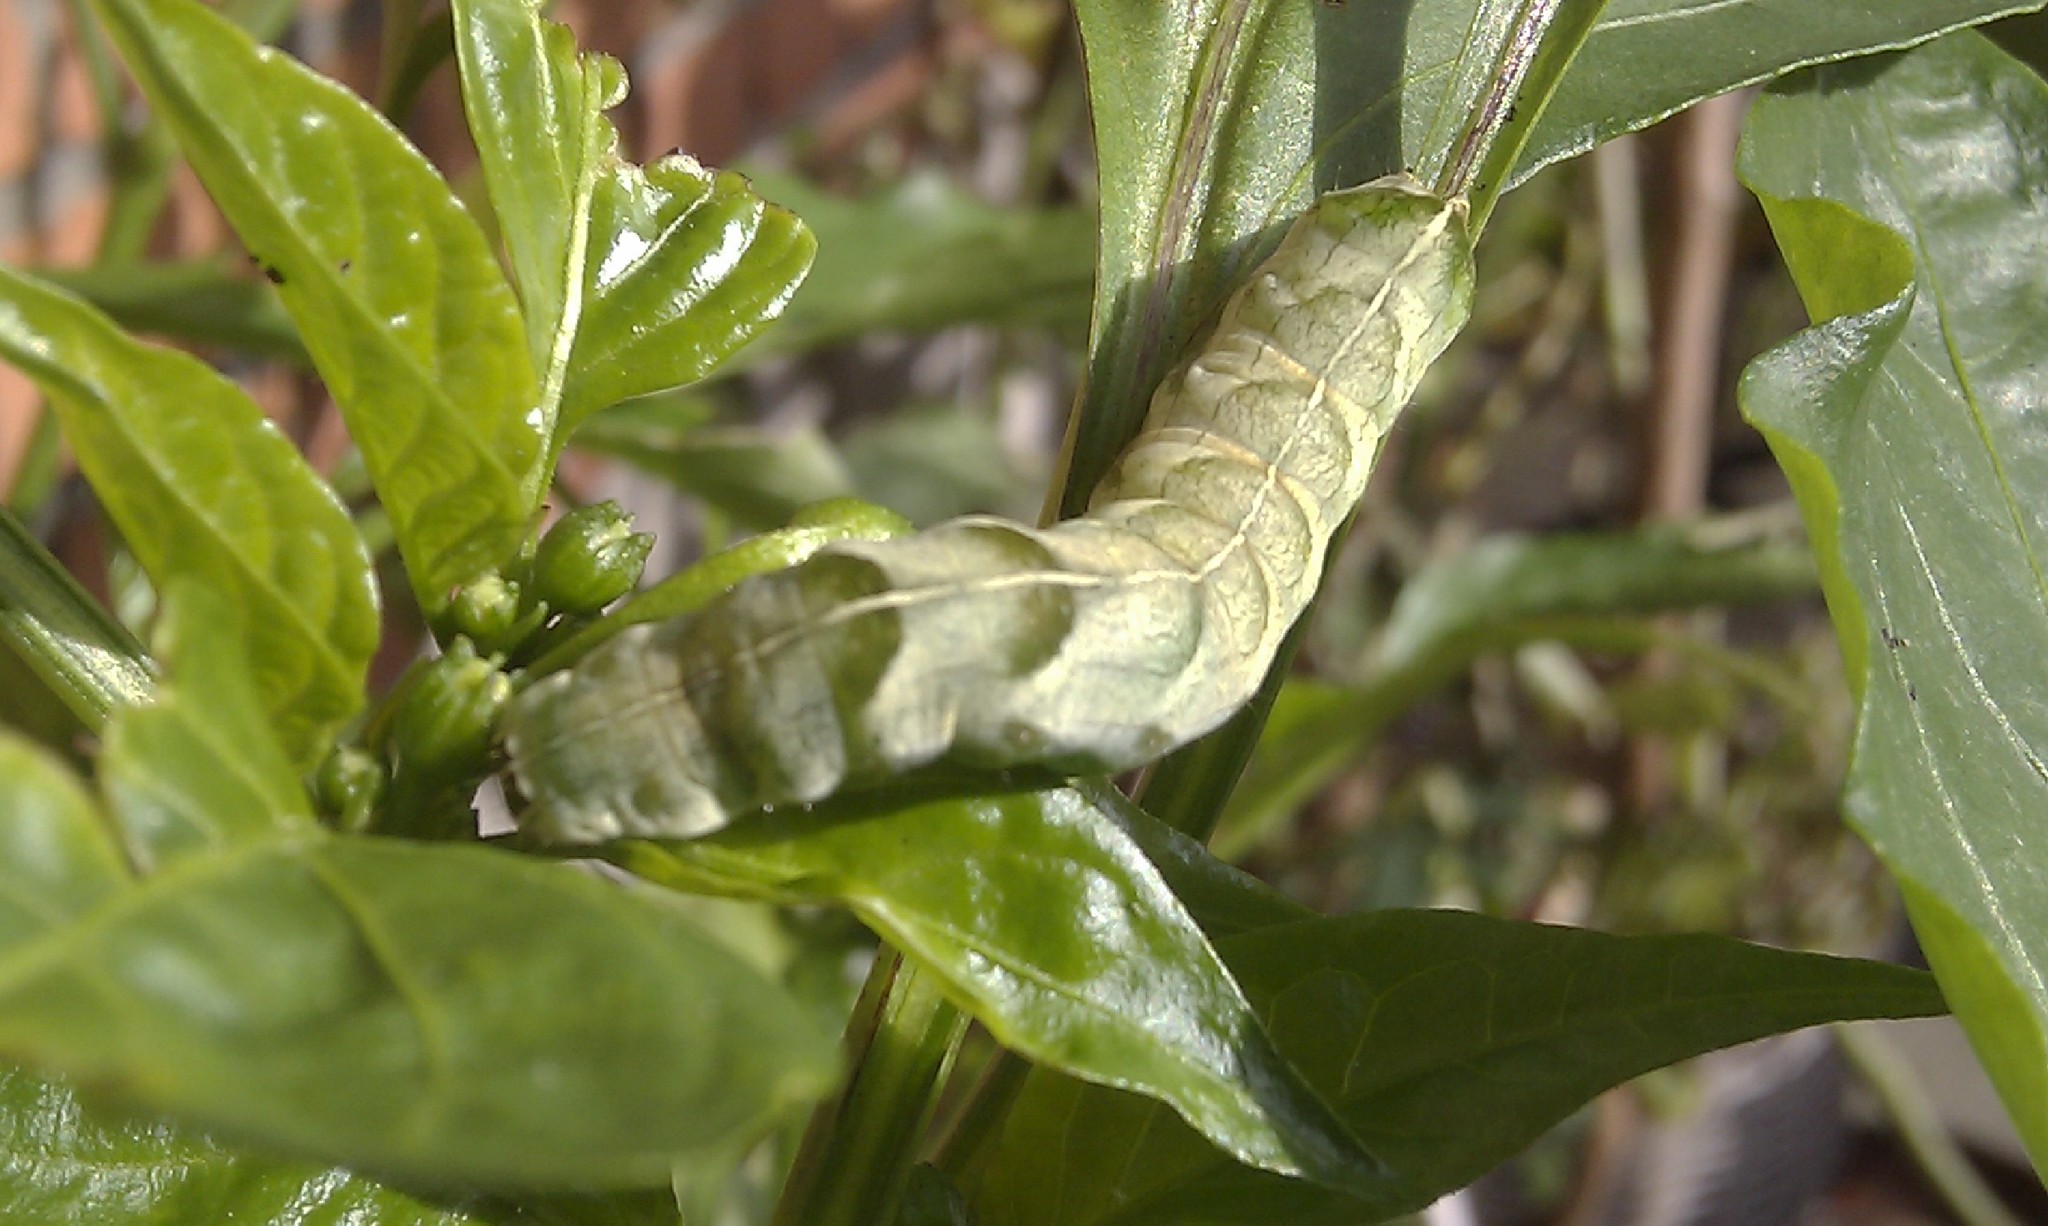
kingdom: Animalia
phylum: Arthropoda
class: Insecta
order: Lepidoptera
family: Noctuidae
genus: Melanchra
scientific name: Melanchra persicariae
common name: Dot moth
